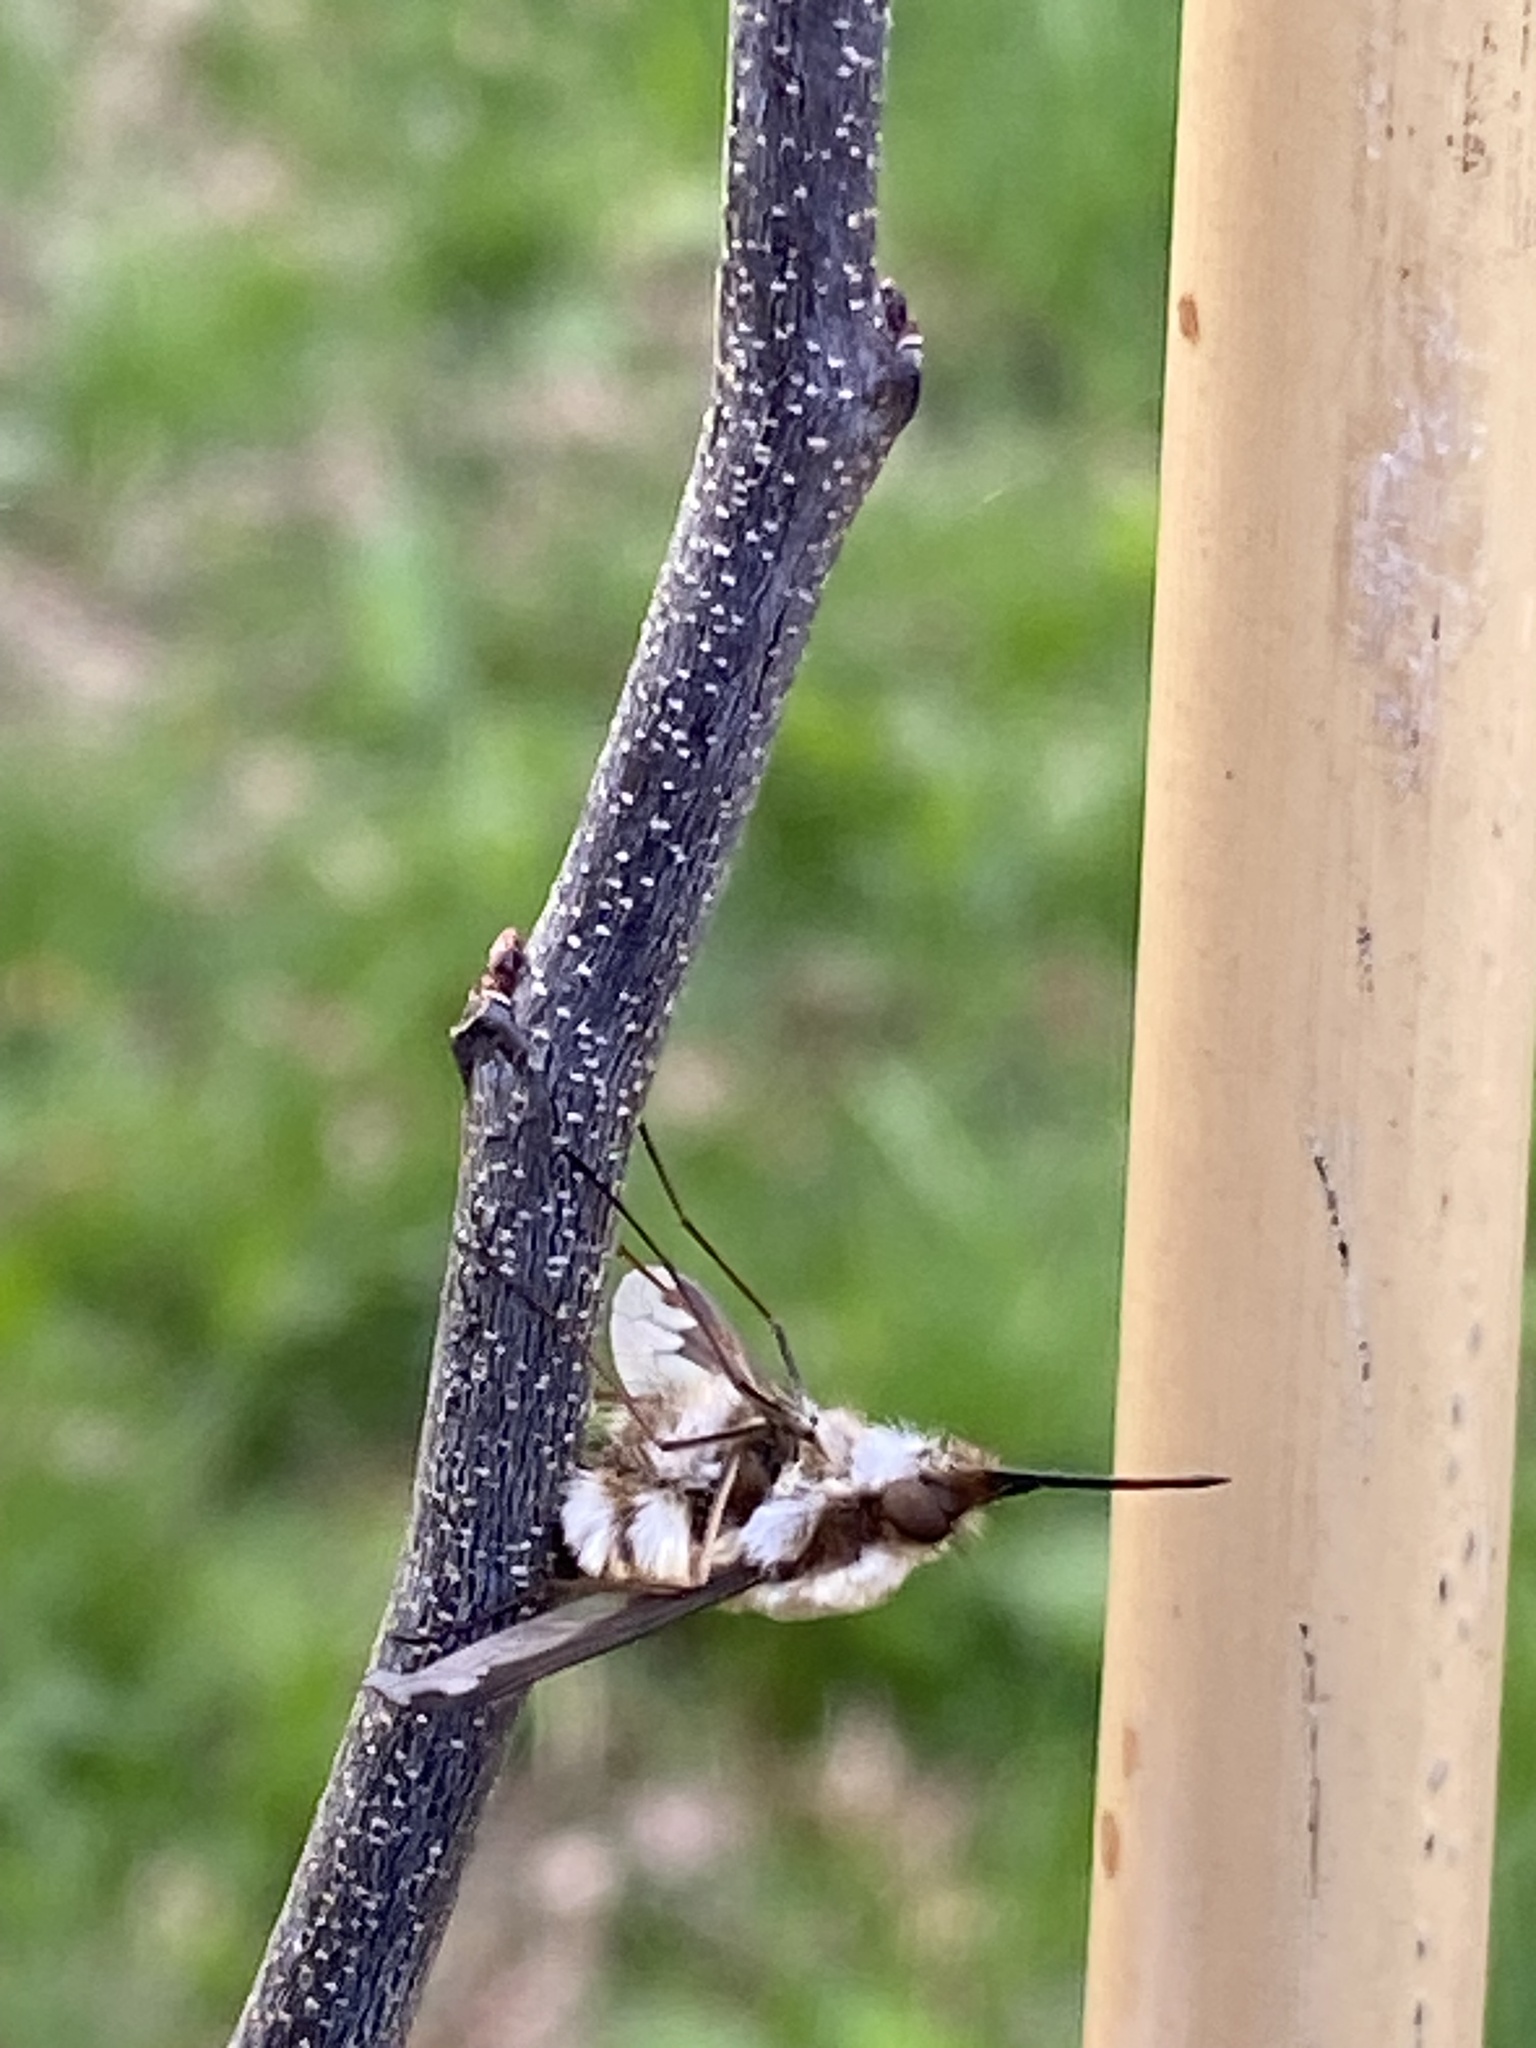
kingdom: Animalia
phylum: Arthropoda
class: Insecta
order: Diptera
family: Bombyliidae
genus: Bombylius
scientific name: Bombylius major
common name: Bee fly
